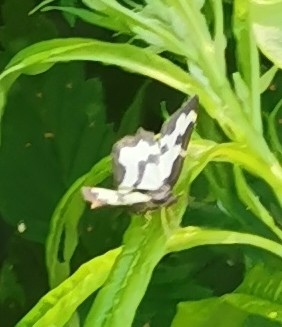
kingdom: Animalia
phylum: Arthropoda
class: Insecta
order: Lepidoptera
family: Geometridae
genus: Lomaspilis
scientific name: Lomaspilis marginata
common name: Clouded border
